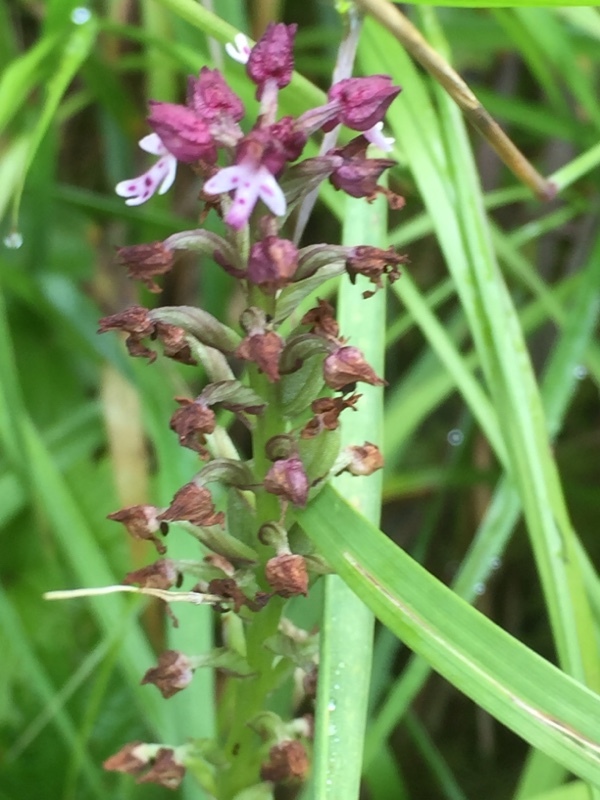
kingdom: Plantae
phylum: Tracheophyta
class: Liliopsida
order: Asparagales
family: Orchidaceae
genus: Neotinea
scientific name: Neotinea ustulata
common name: Burnt orchid
